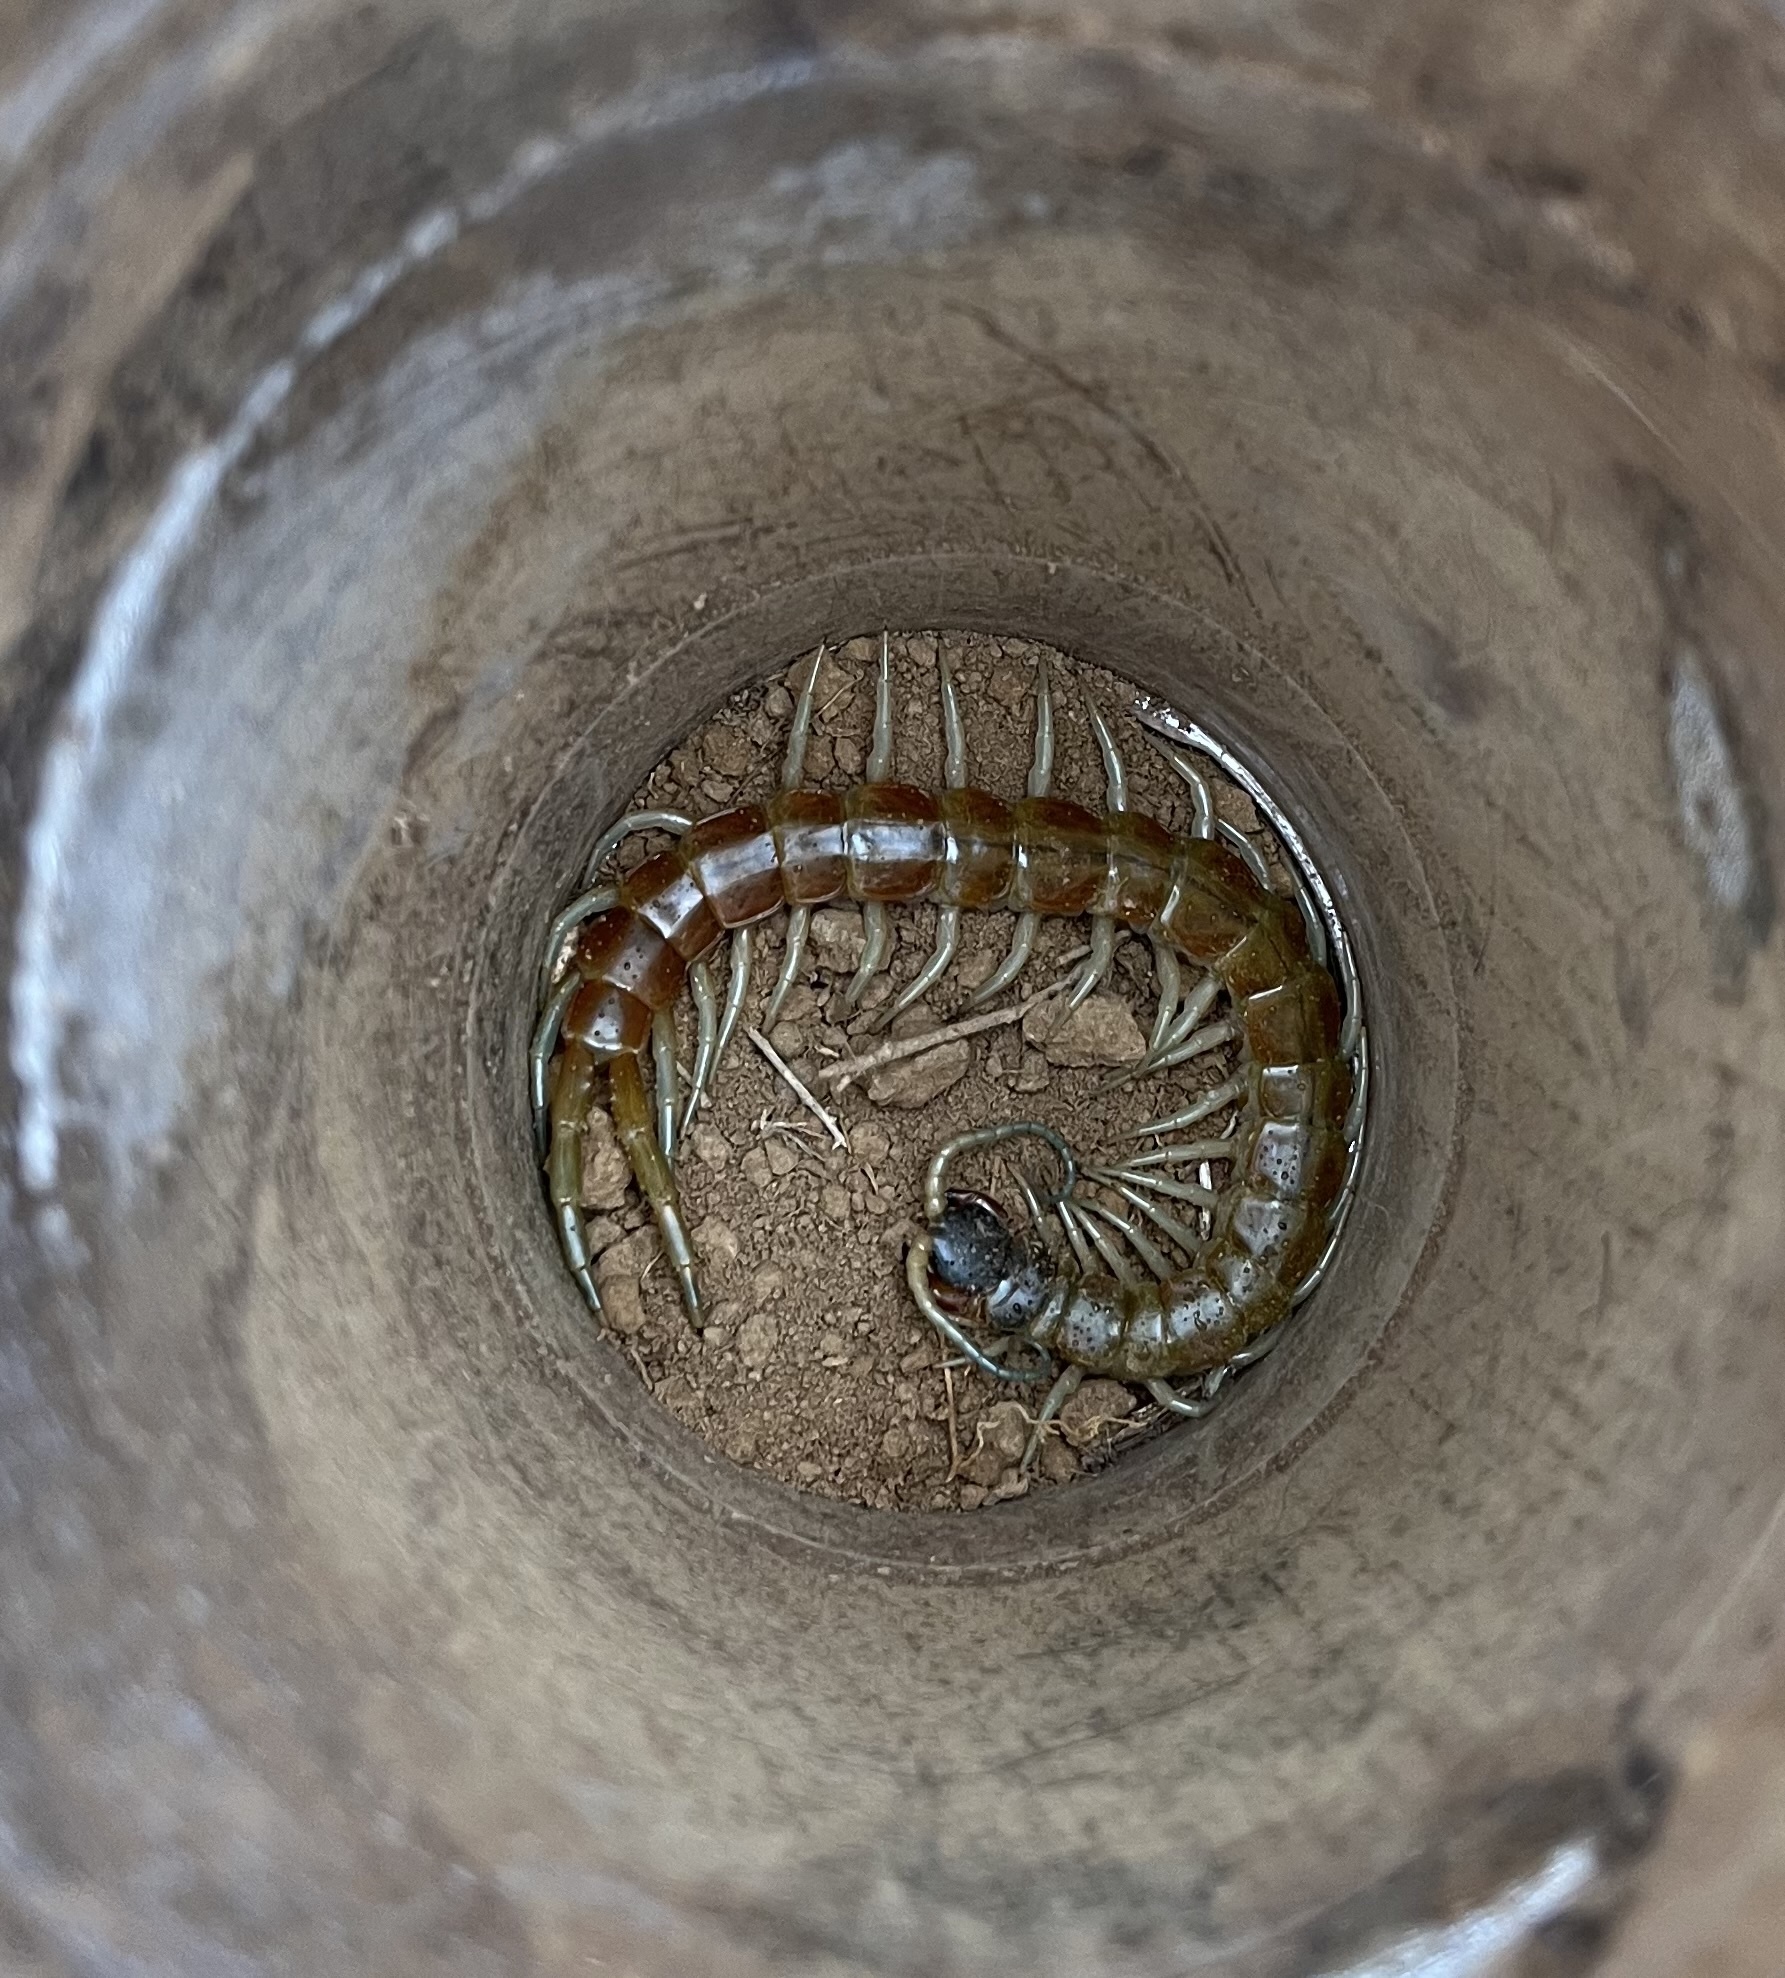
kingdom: Animalia
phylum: Arthropoda
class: Chilopoda
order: Scolopendromorpha
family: Scolopendridae
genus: Scolopendra
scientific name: Scolopendra aztecorum
